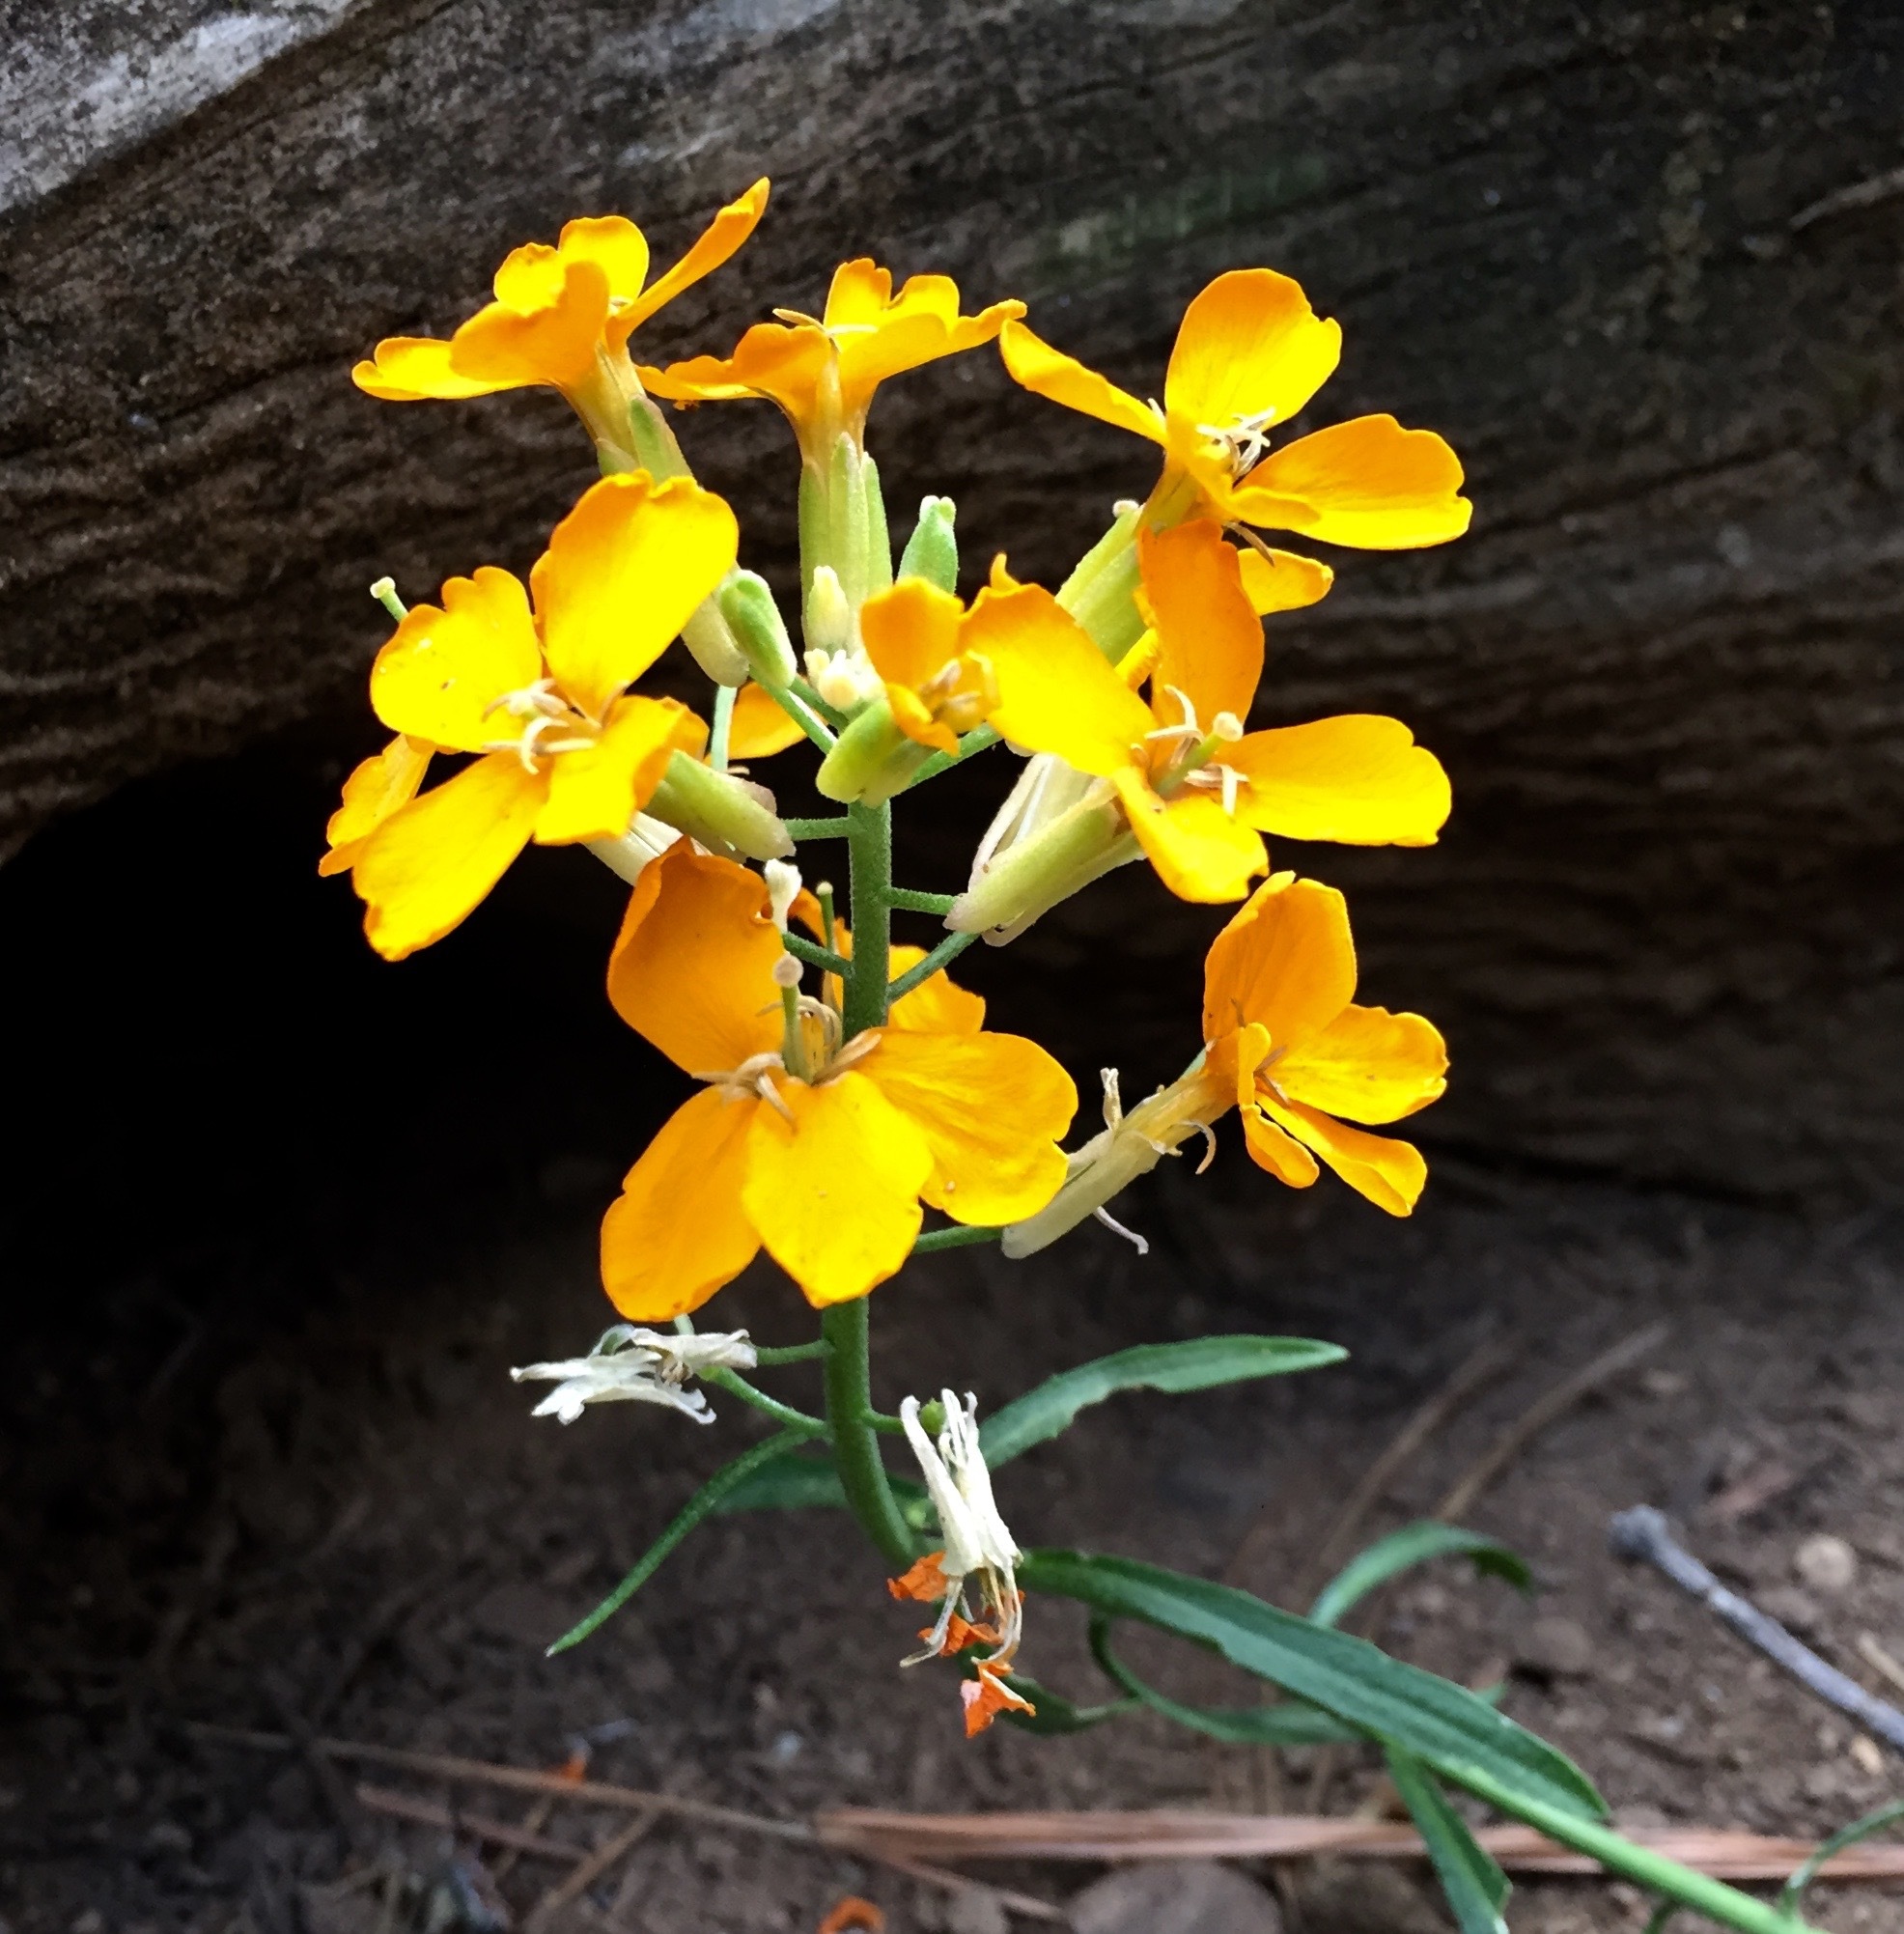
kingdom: Plantae
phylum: Tracheophyta
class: Magnoliopsida
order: Brassicales
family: Brassicaceae
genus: Erysimum
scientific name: Erysimum capitatum
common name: Western wallflower
